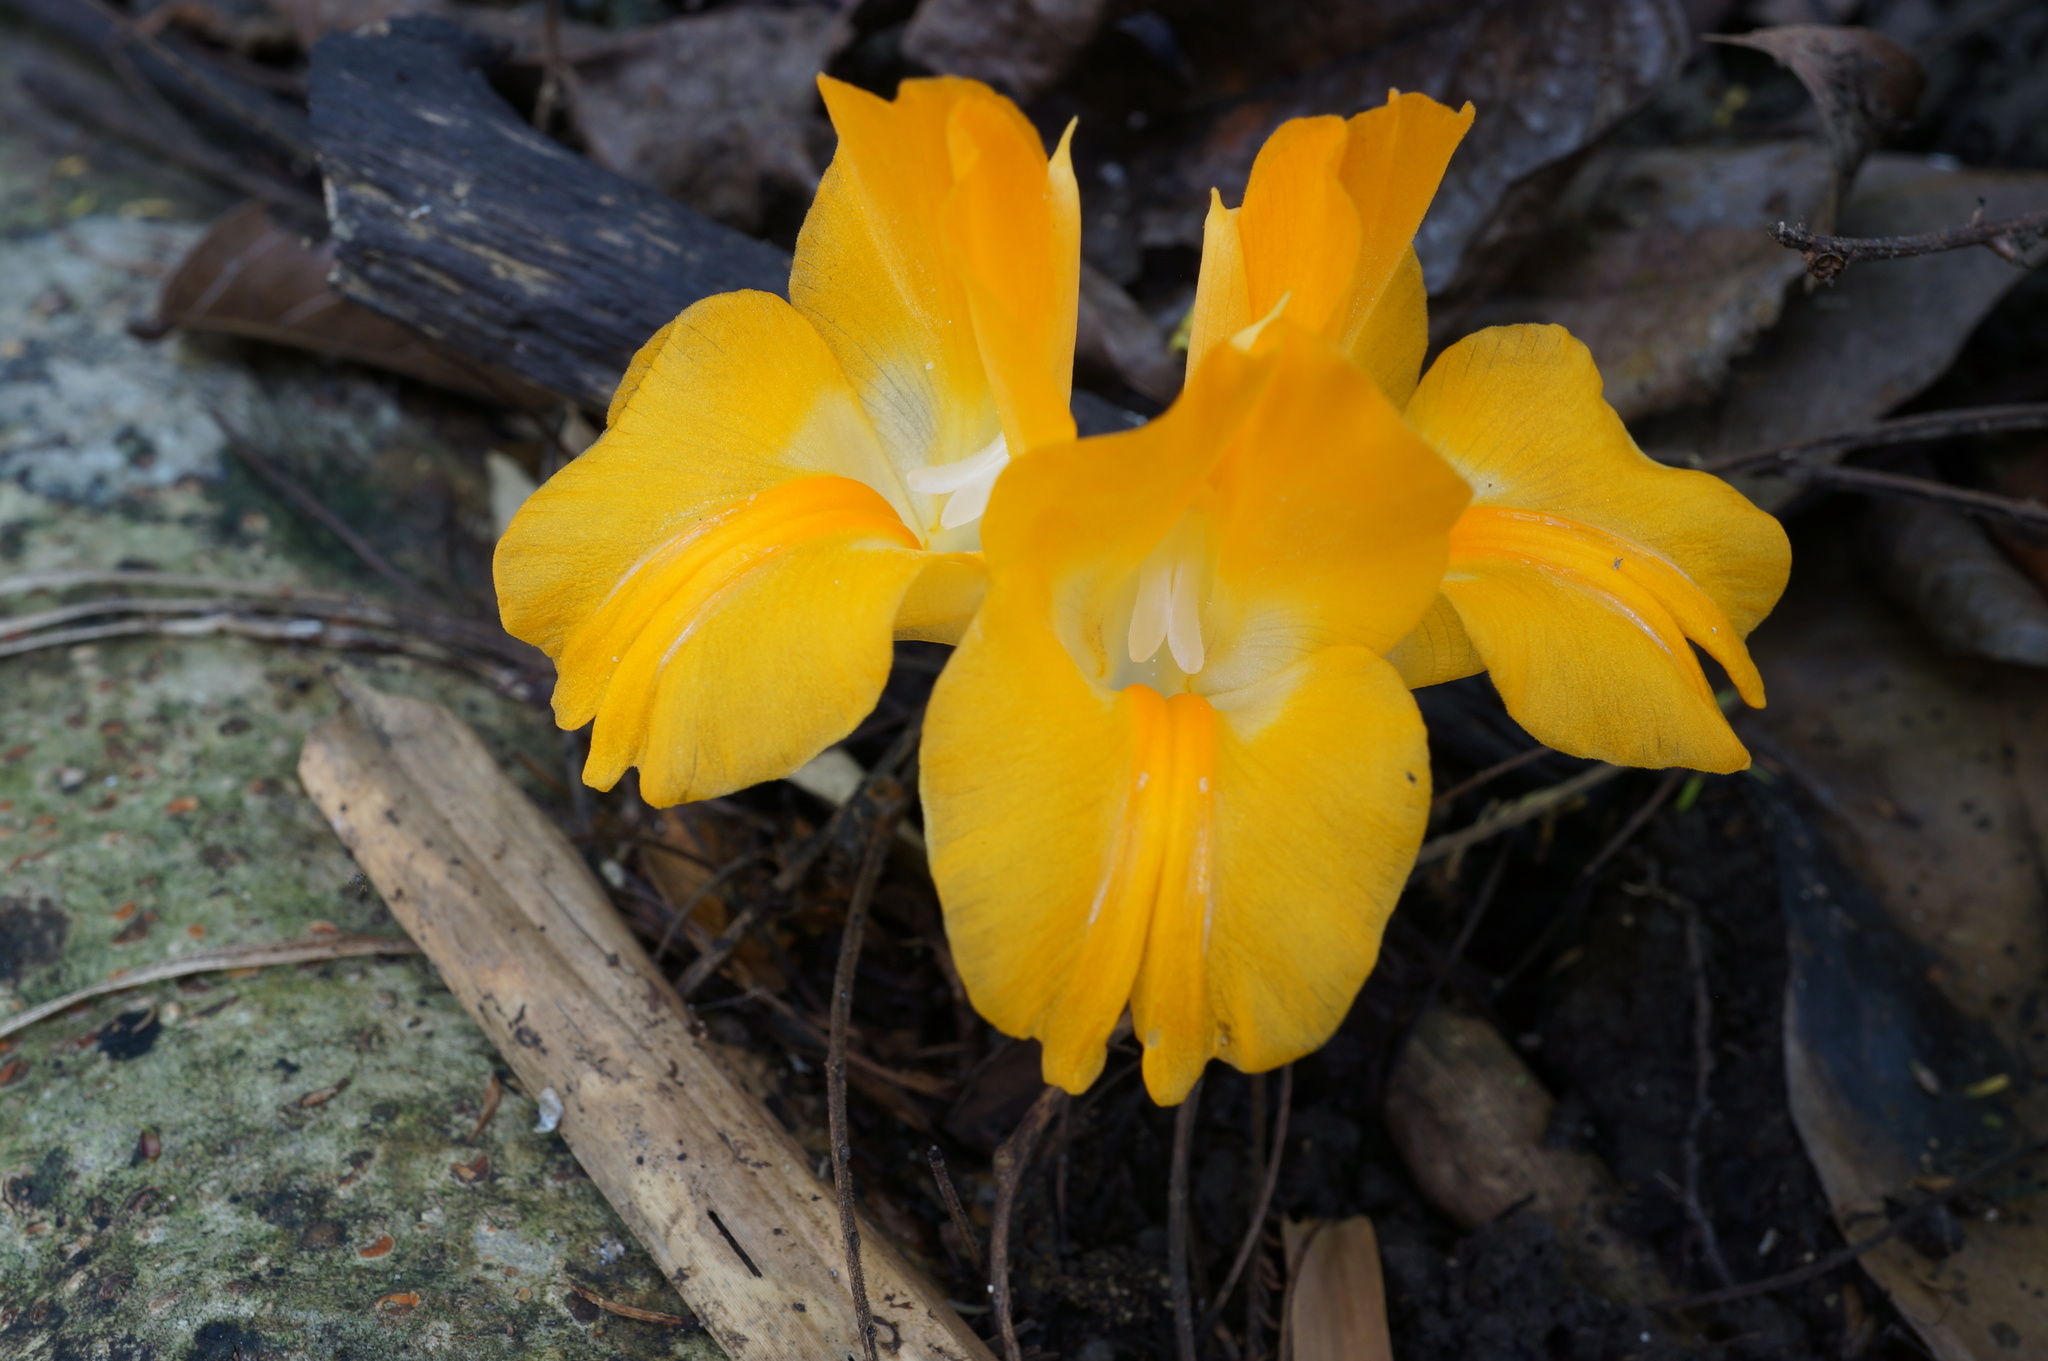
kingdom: Plantae
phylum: Tracheophyta
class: Liliopsida
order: Zingiberales
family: Zingiberaceae
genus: Curcuma
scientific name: Curcuma xanthella
